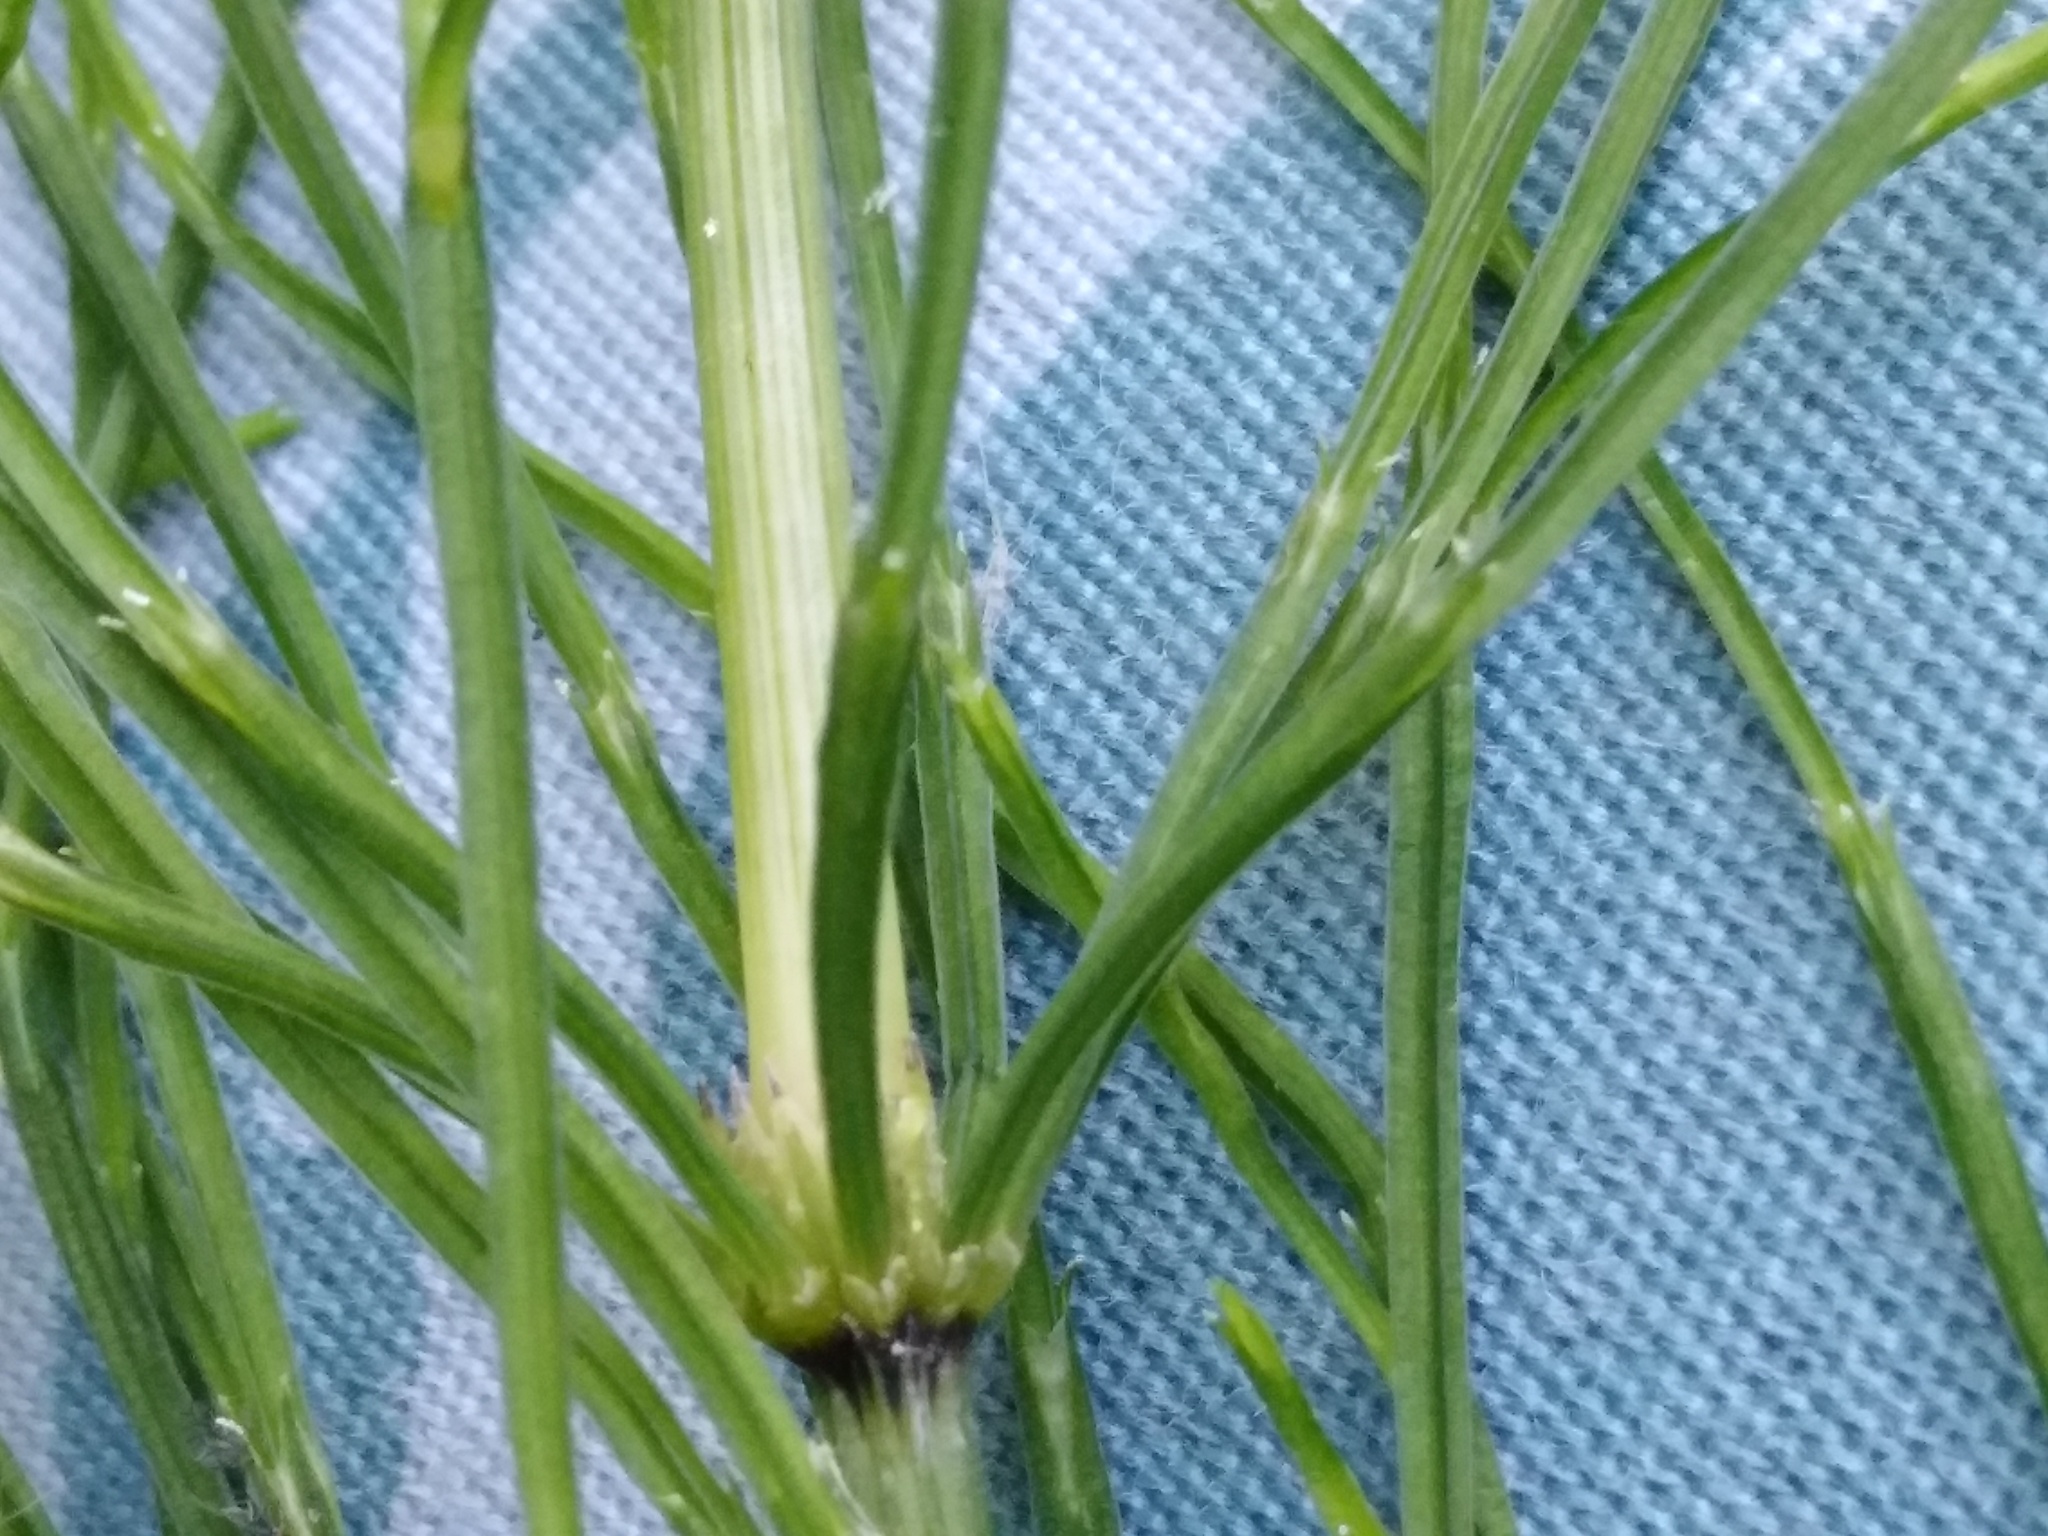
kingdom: Plantae
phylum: Tracheophyta
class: Polypodiopsida
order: Equisetales
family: Equisetaceae
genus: Equisetum
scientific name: Equisetum arvense
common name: Field horsetail
